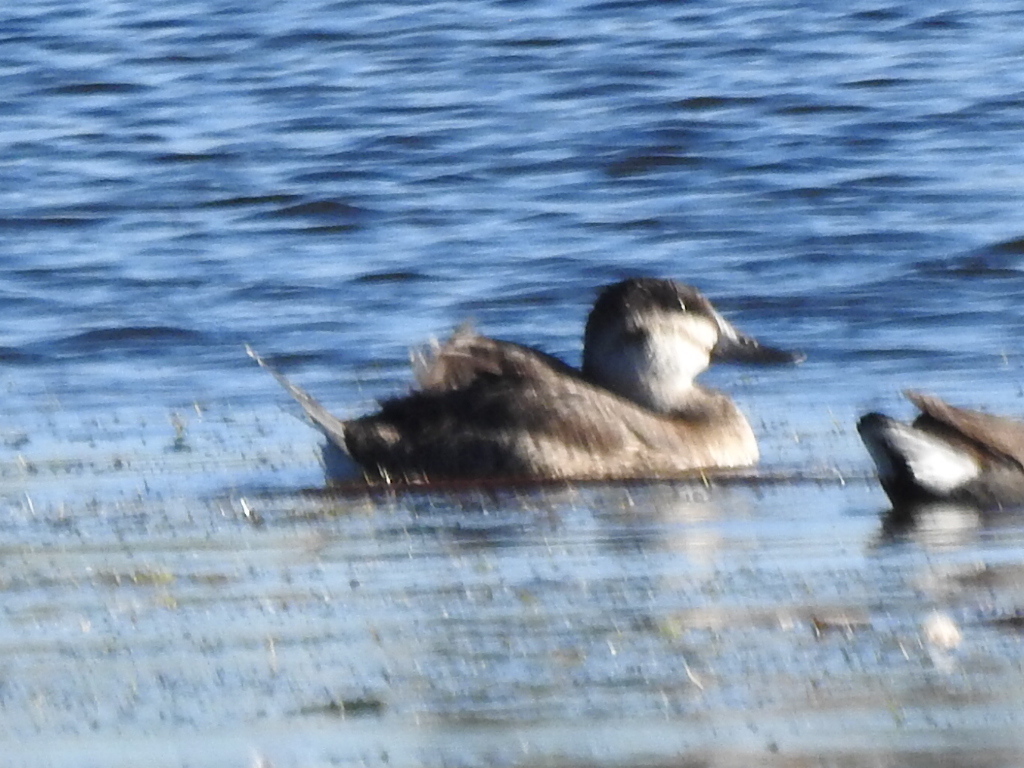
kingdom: Animalia
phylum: Chordata
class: Aves
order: Anseriformes
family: Anatidae
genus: Oxyura
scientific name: Oxyura jamaicensis
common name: Ruddy duck
